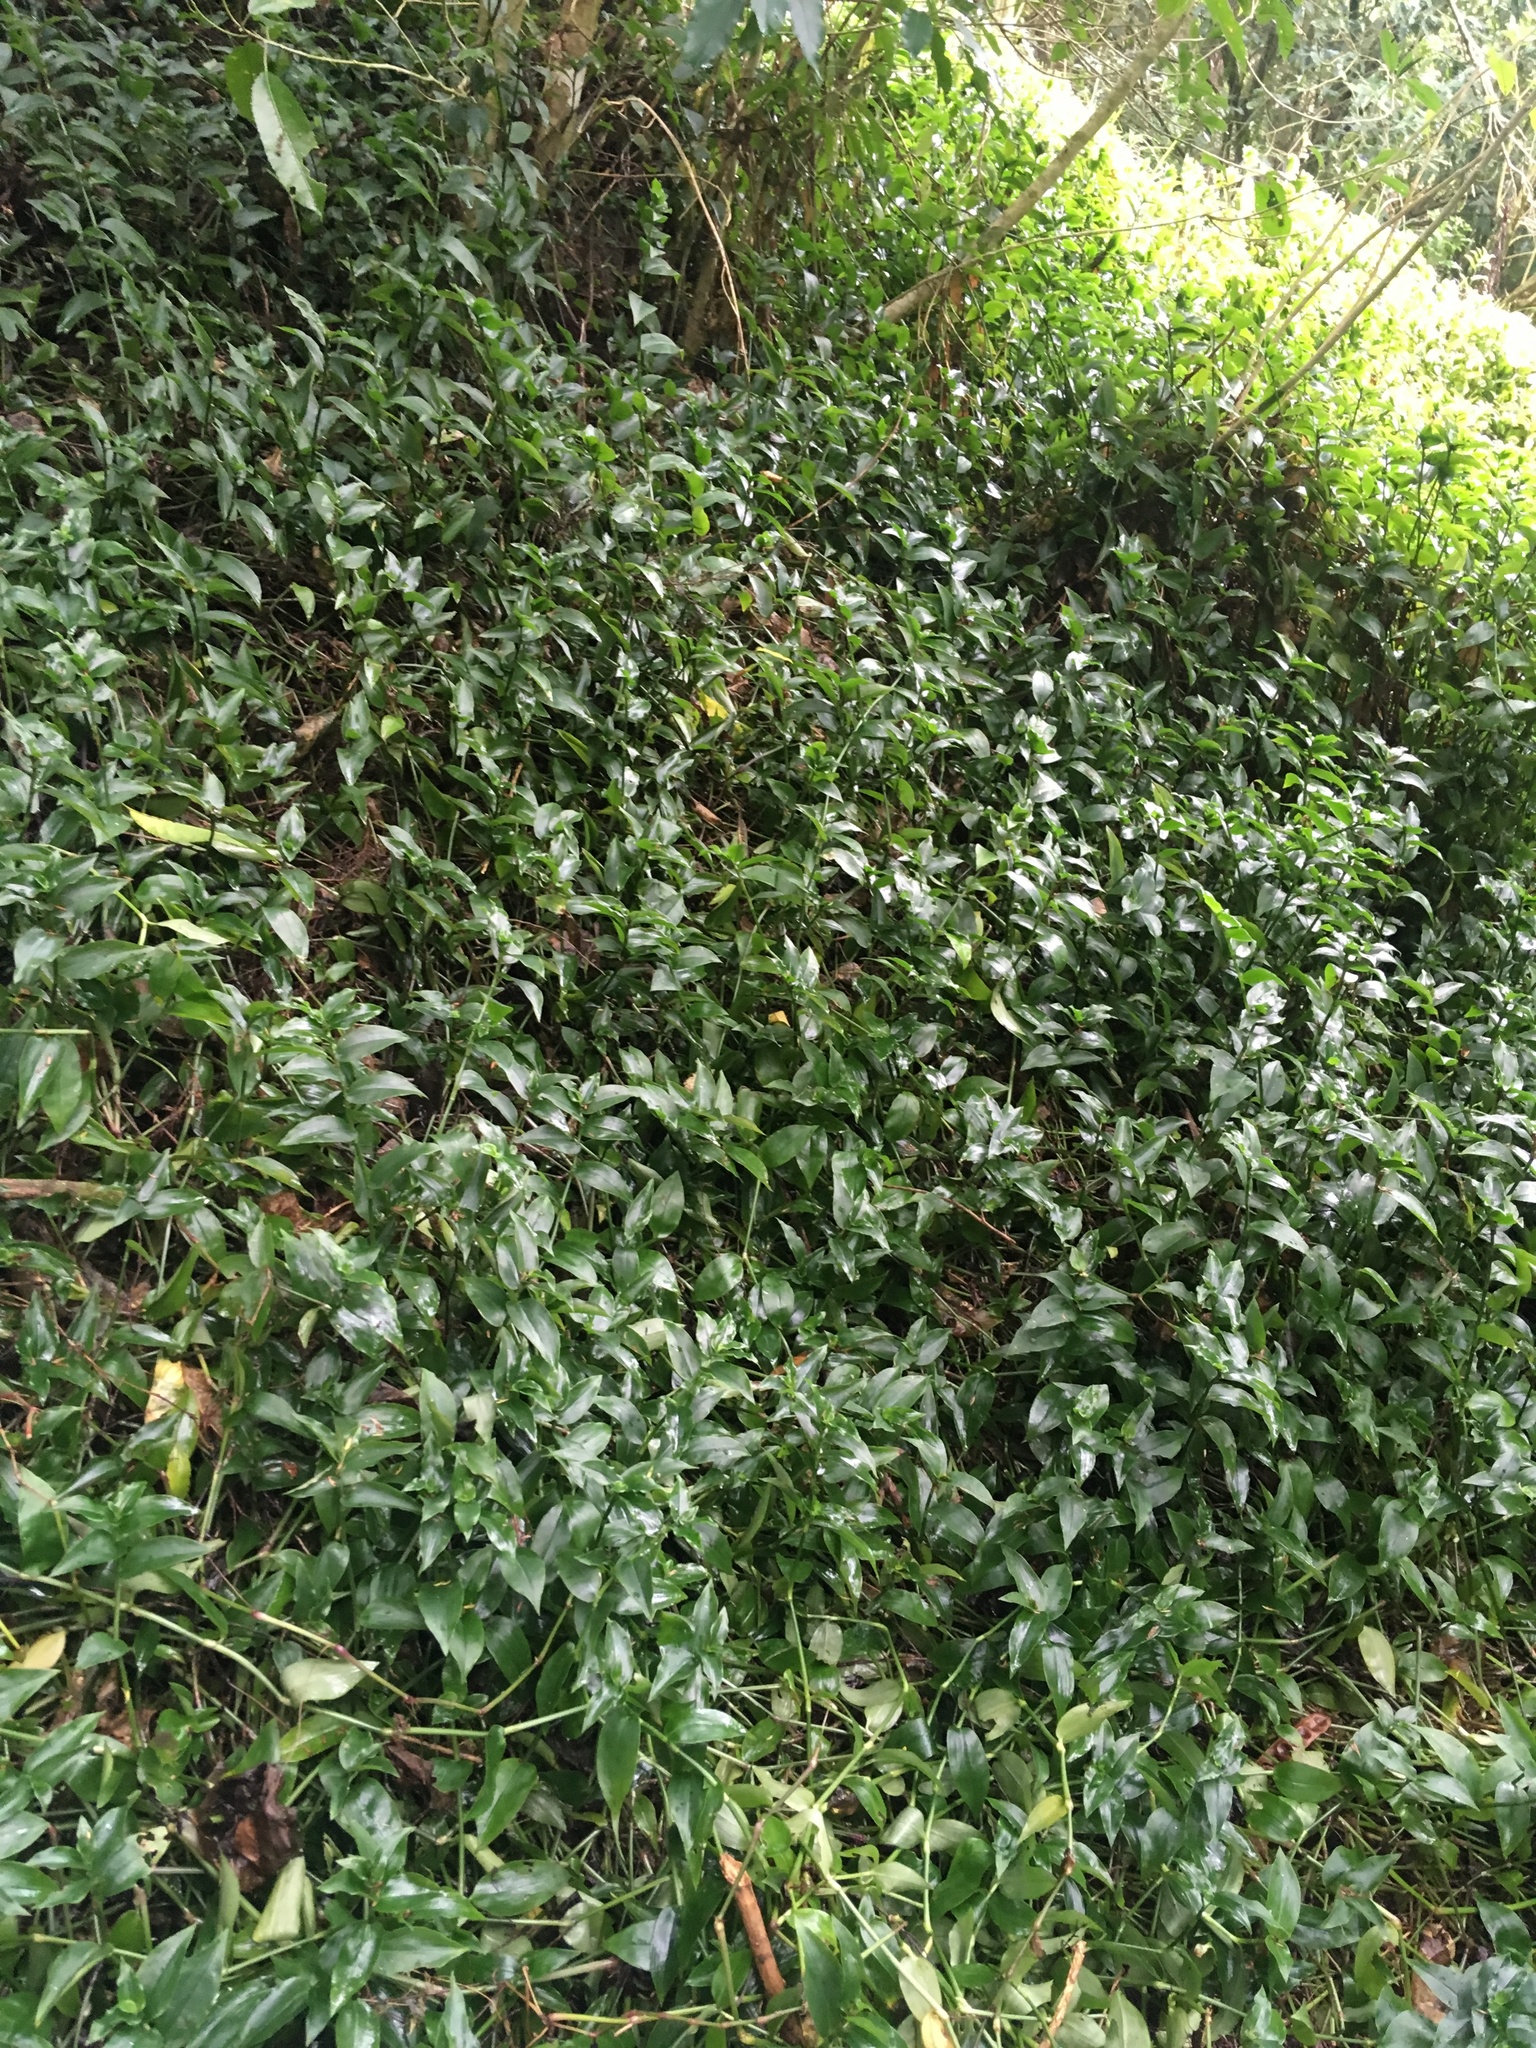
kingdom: Plantae
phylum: Tracheophyta
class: Liliopsida
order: Commelinales
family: Commelinaceae
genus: Tradescantia
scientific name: Tradescantia fluminensis
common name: Wandering-jew
